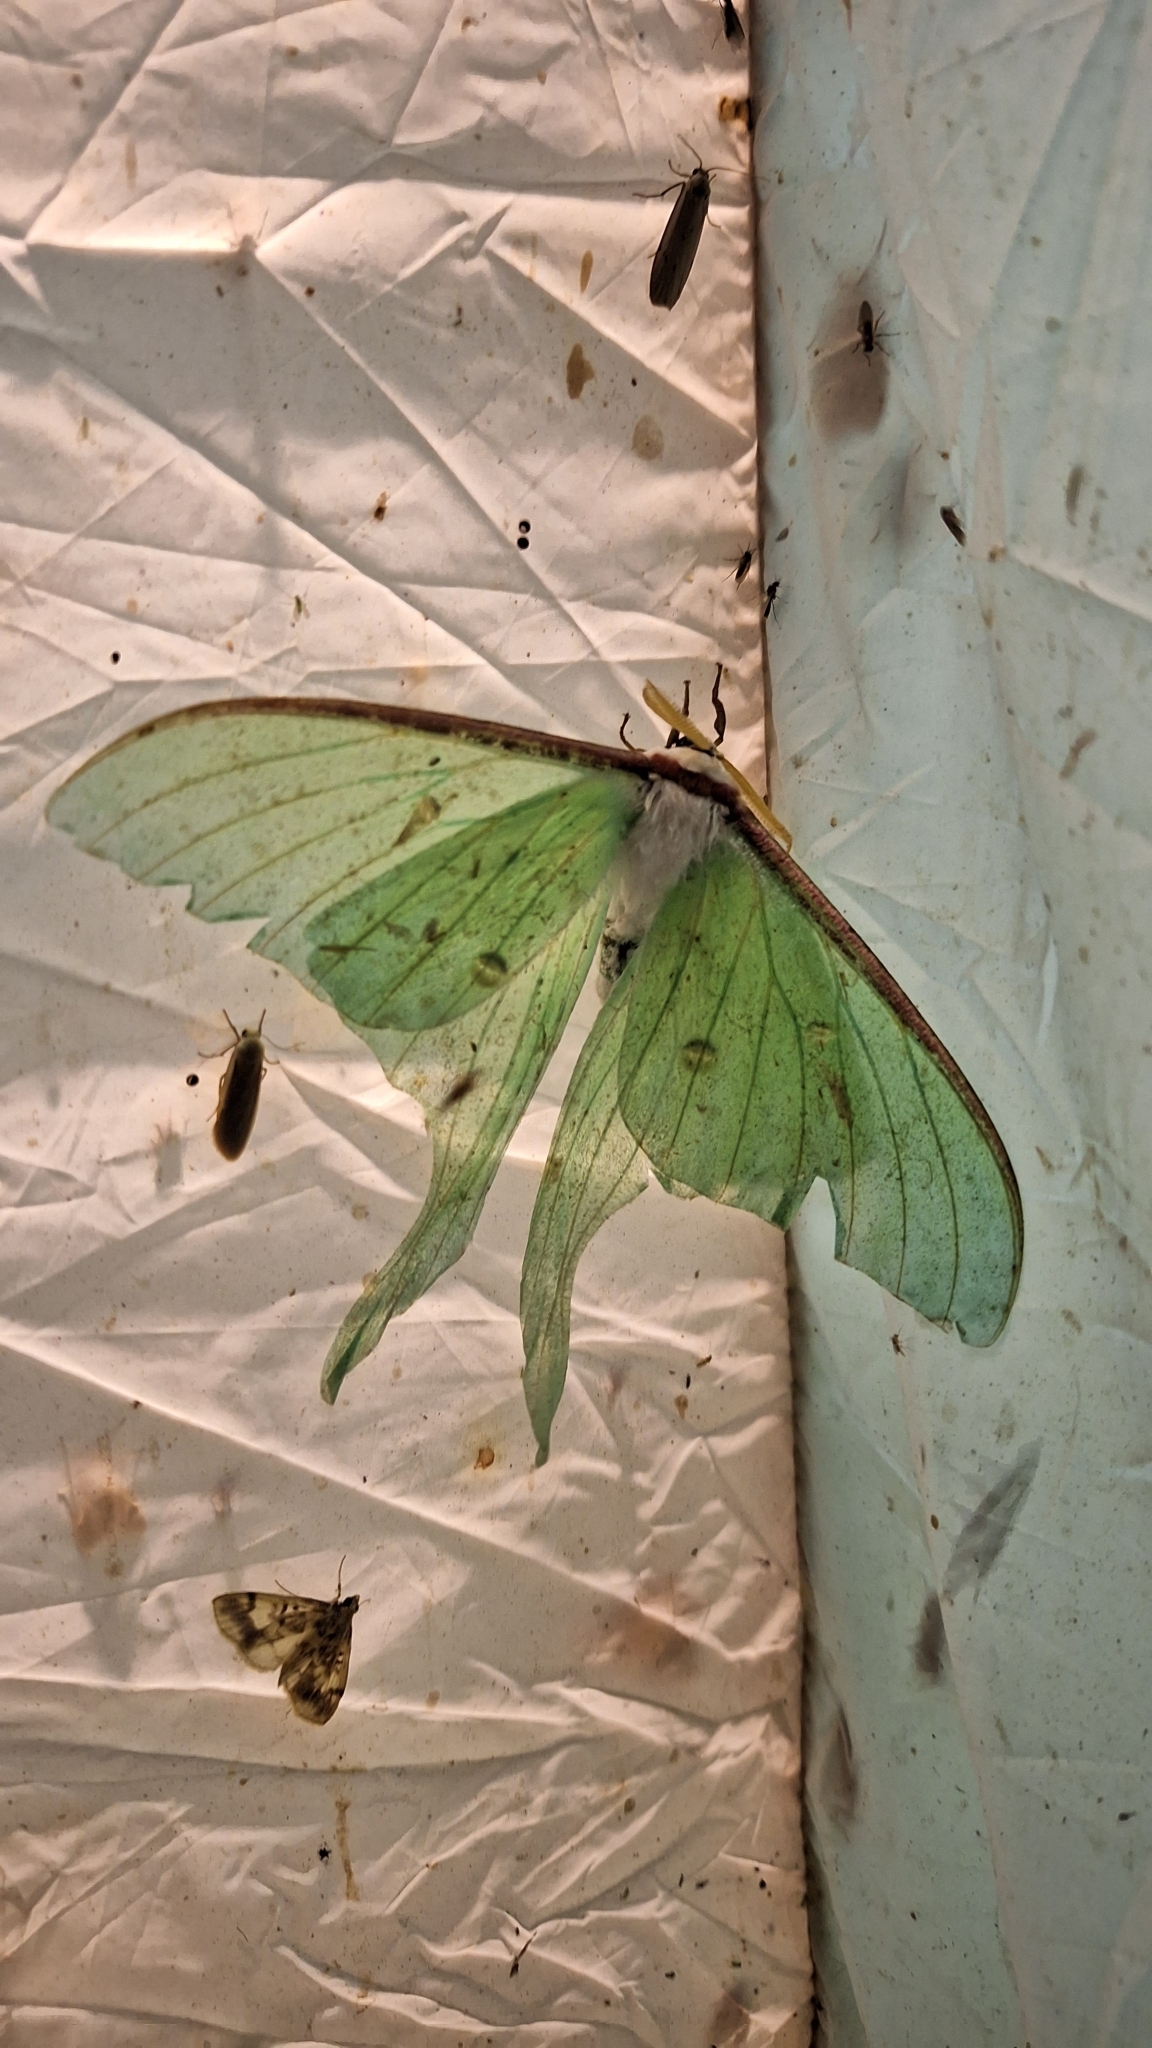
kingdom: Animalia
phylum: Arthropoda
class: Insecta
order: Lepidoptera
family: Saturniidae
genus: Actias
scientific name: Actias artemis
